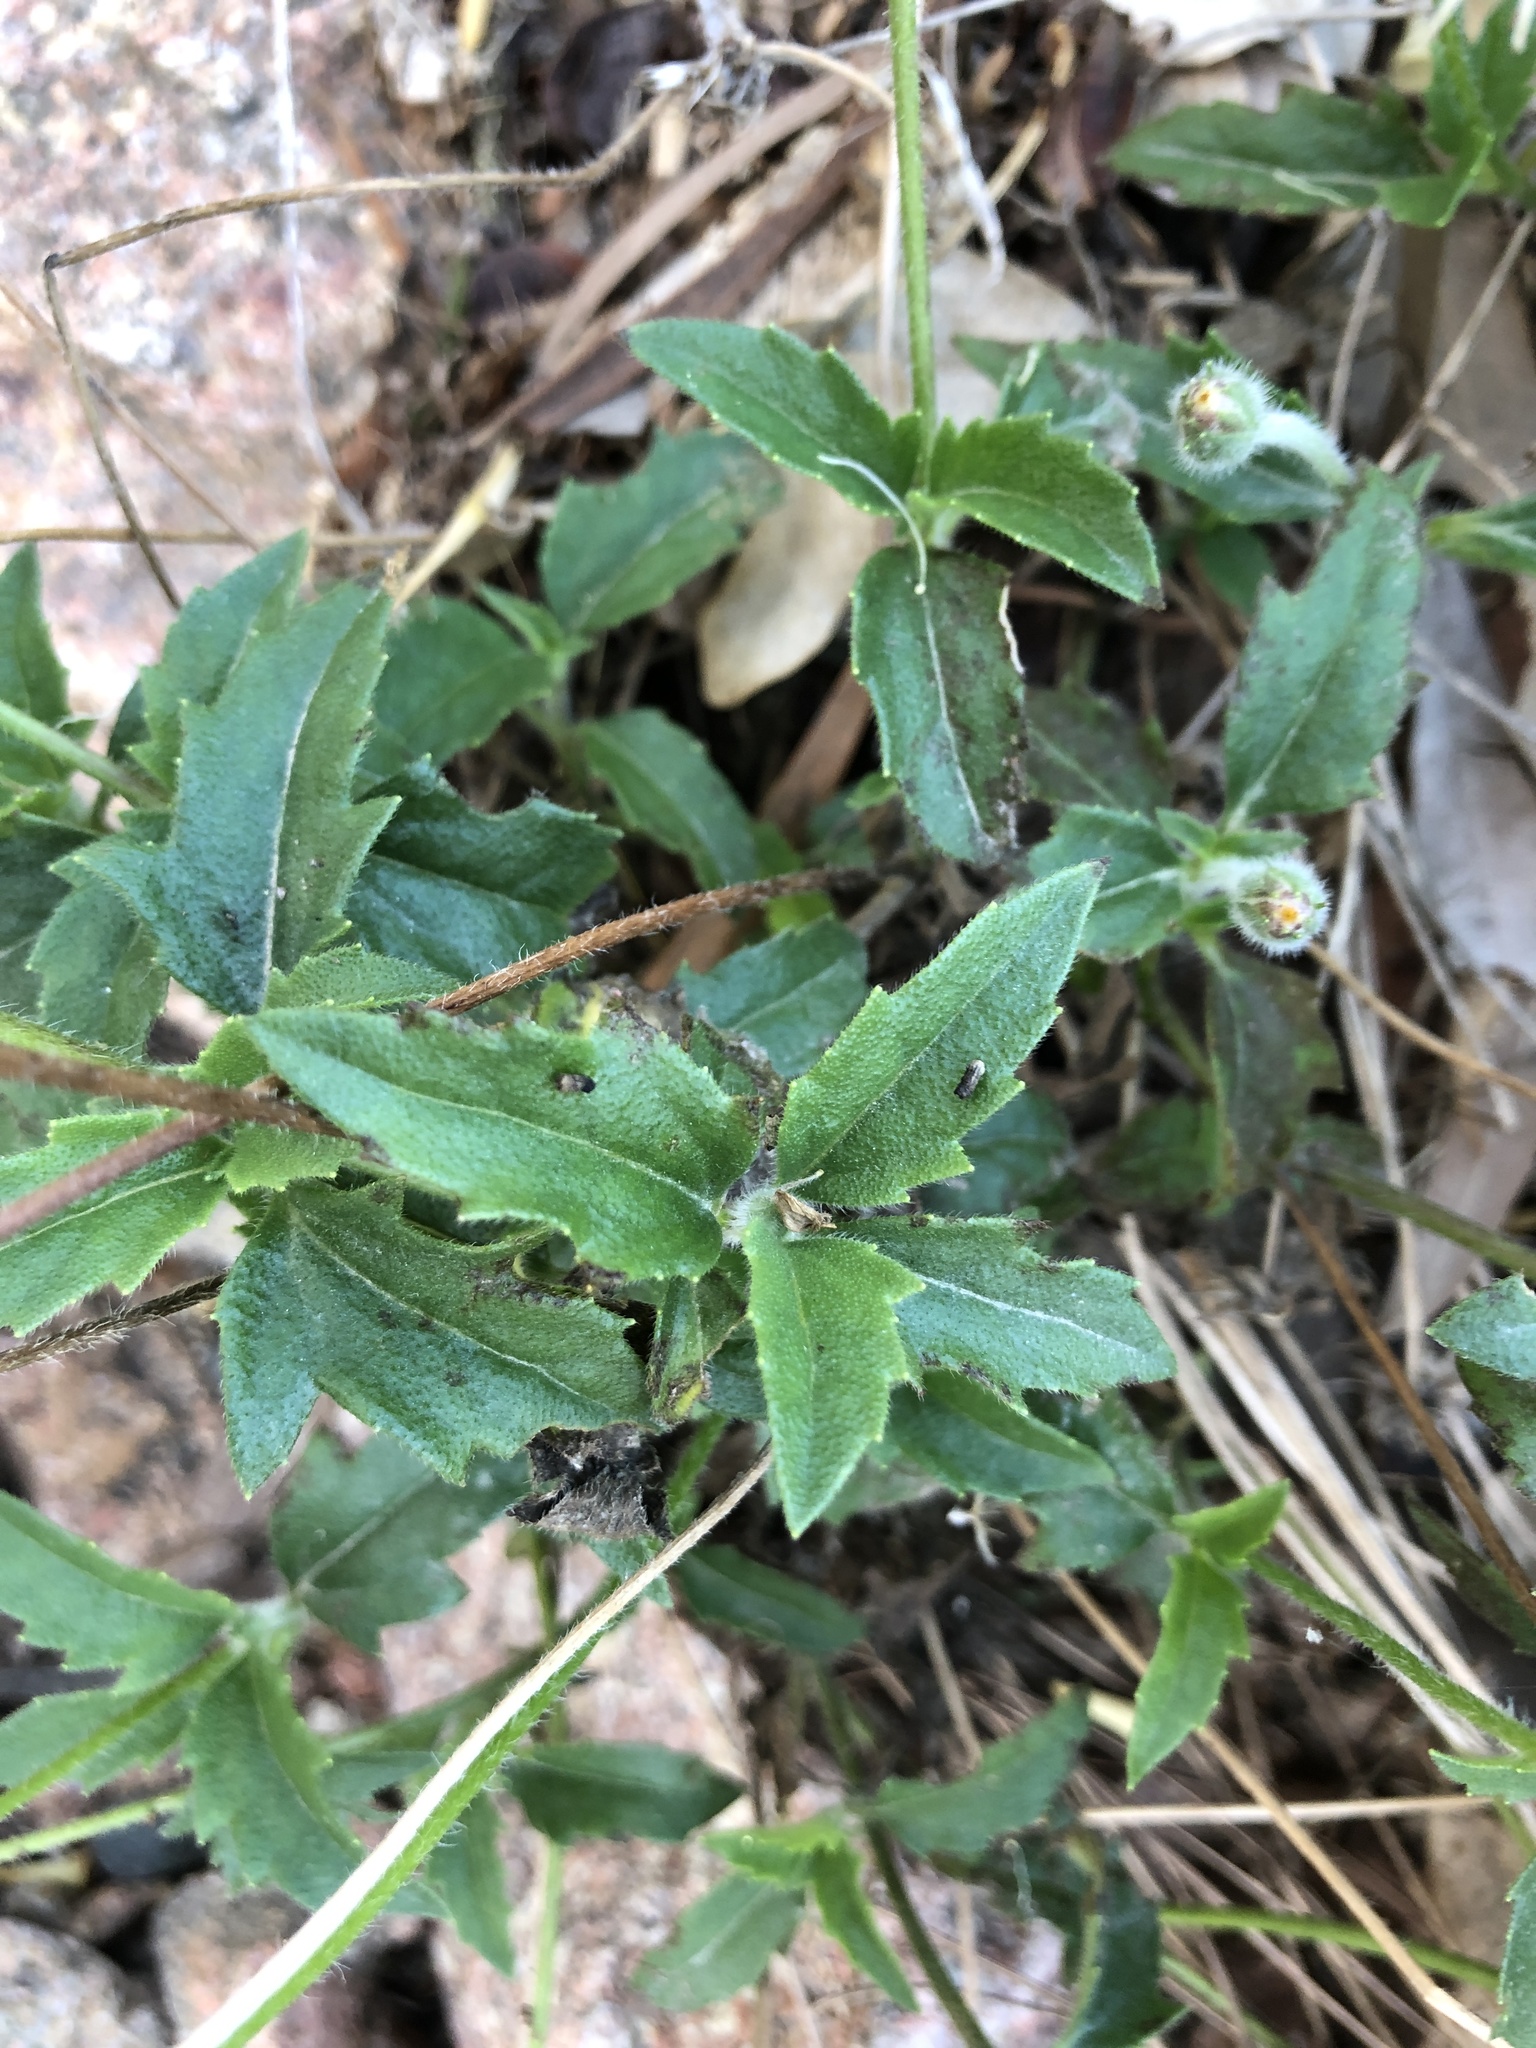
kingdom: Plantae
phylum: Tracheophyta
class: Magnoliopsida
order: Asterales
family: Asteraceae
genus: Tridax
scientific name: Tridax procumbens
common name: Coatbuttons
